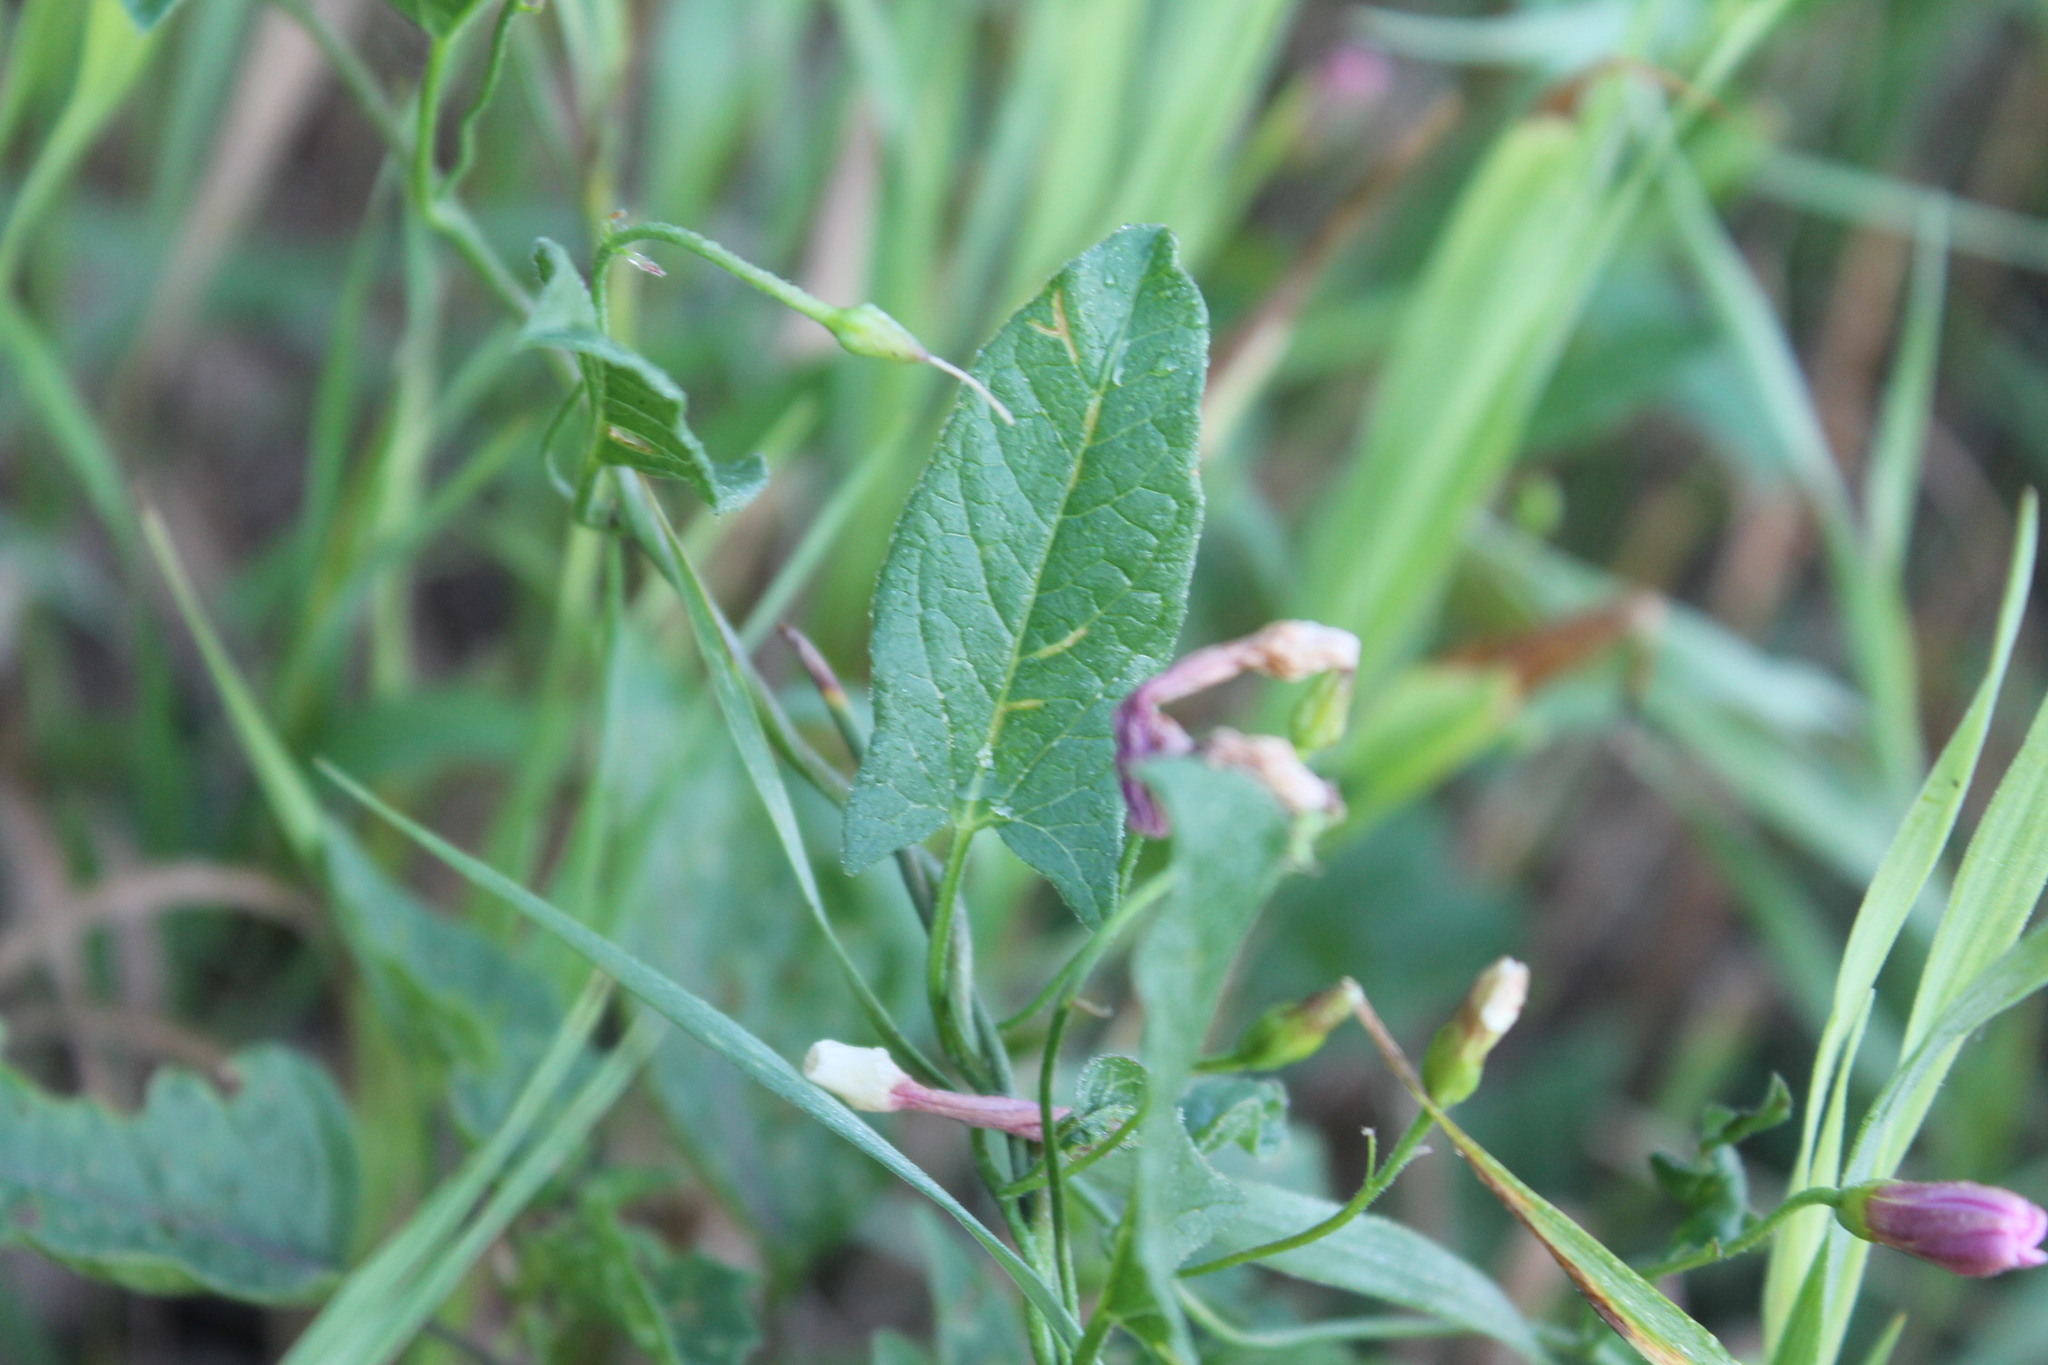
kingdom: Plantae
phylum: Tracheophyta
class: Magnoliopsida
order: Solanales
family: Convolvulaceae
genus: Convolvulus
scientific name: Convolvulus arvensis
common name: Field bindweed
